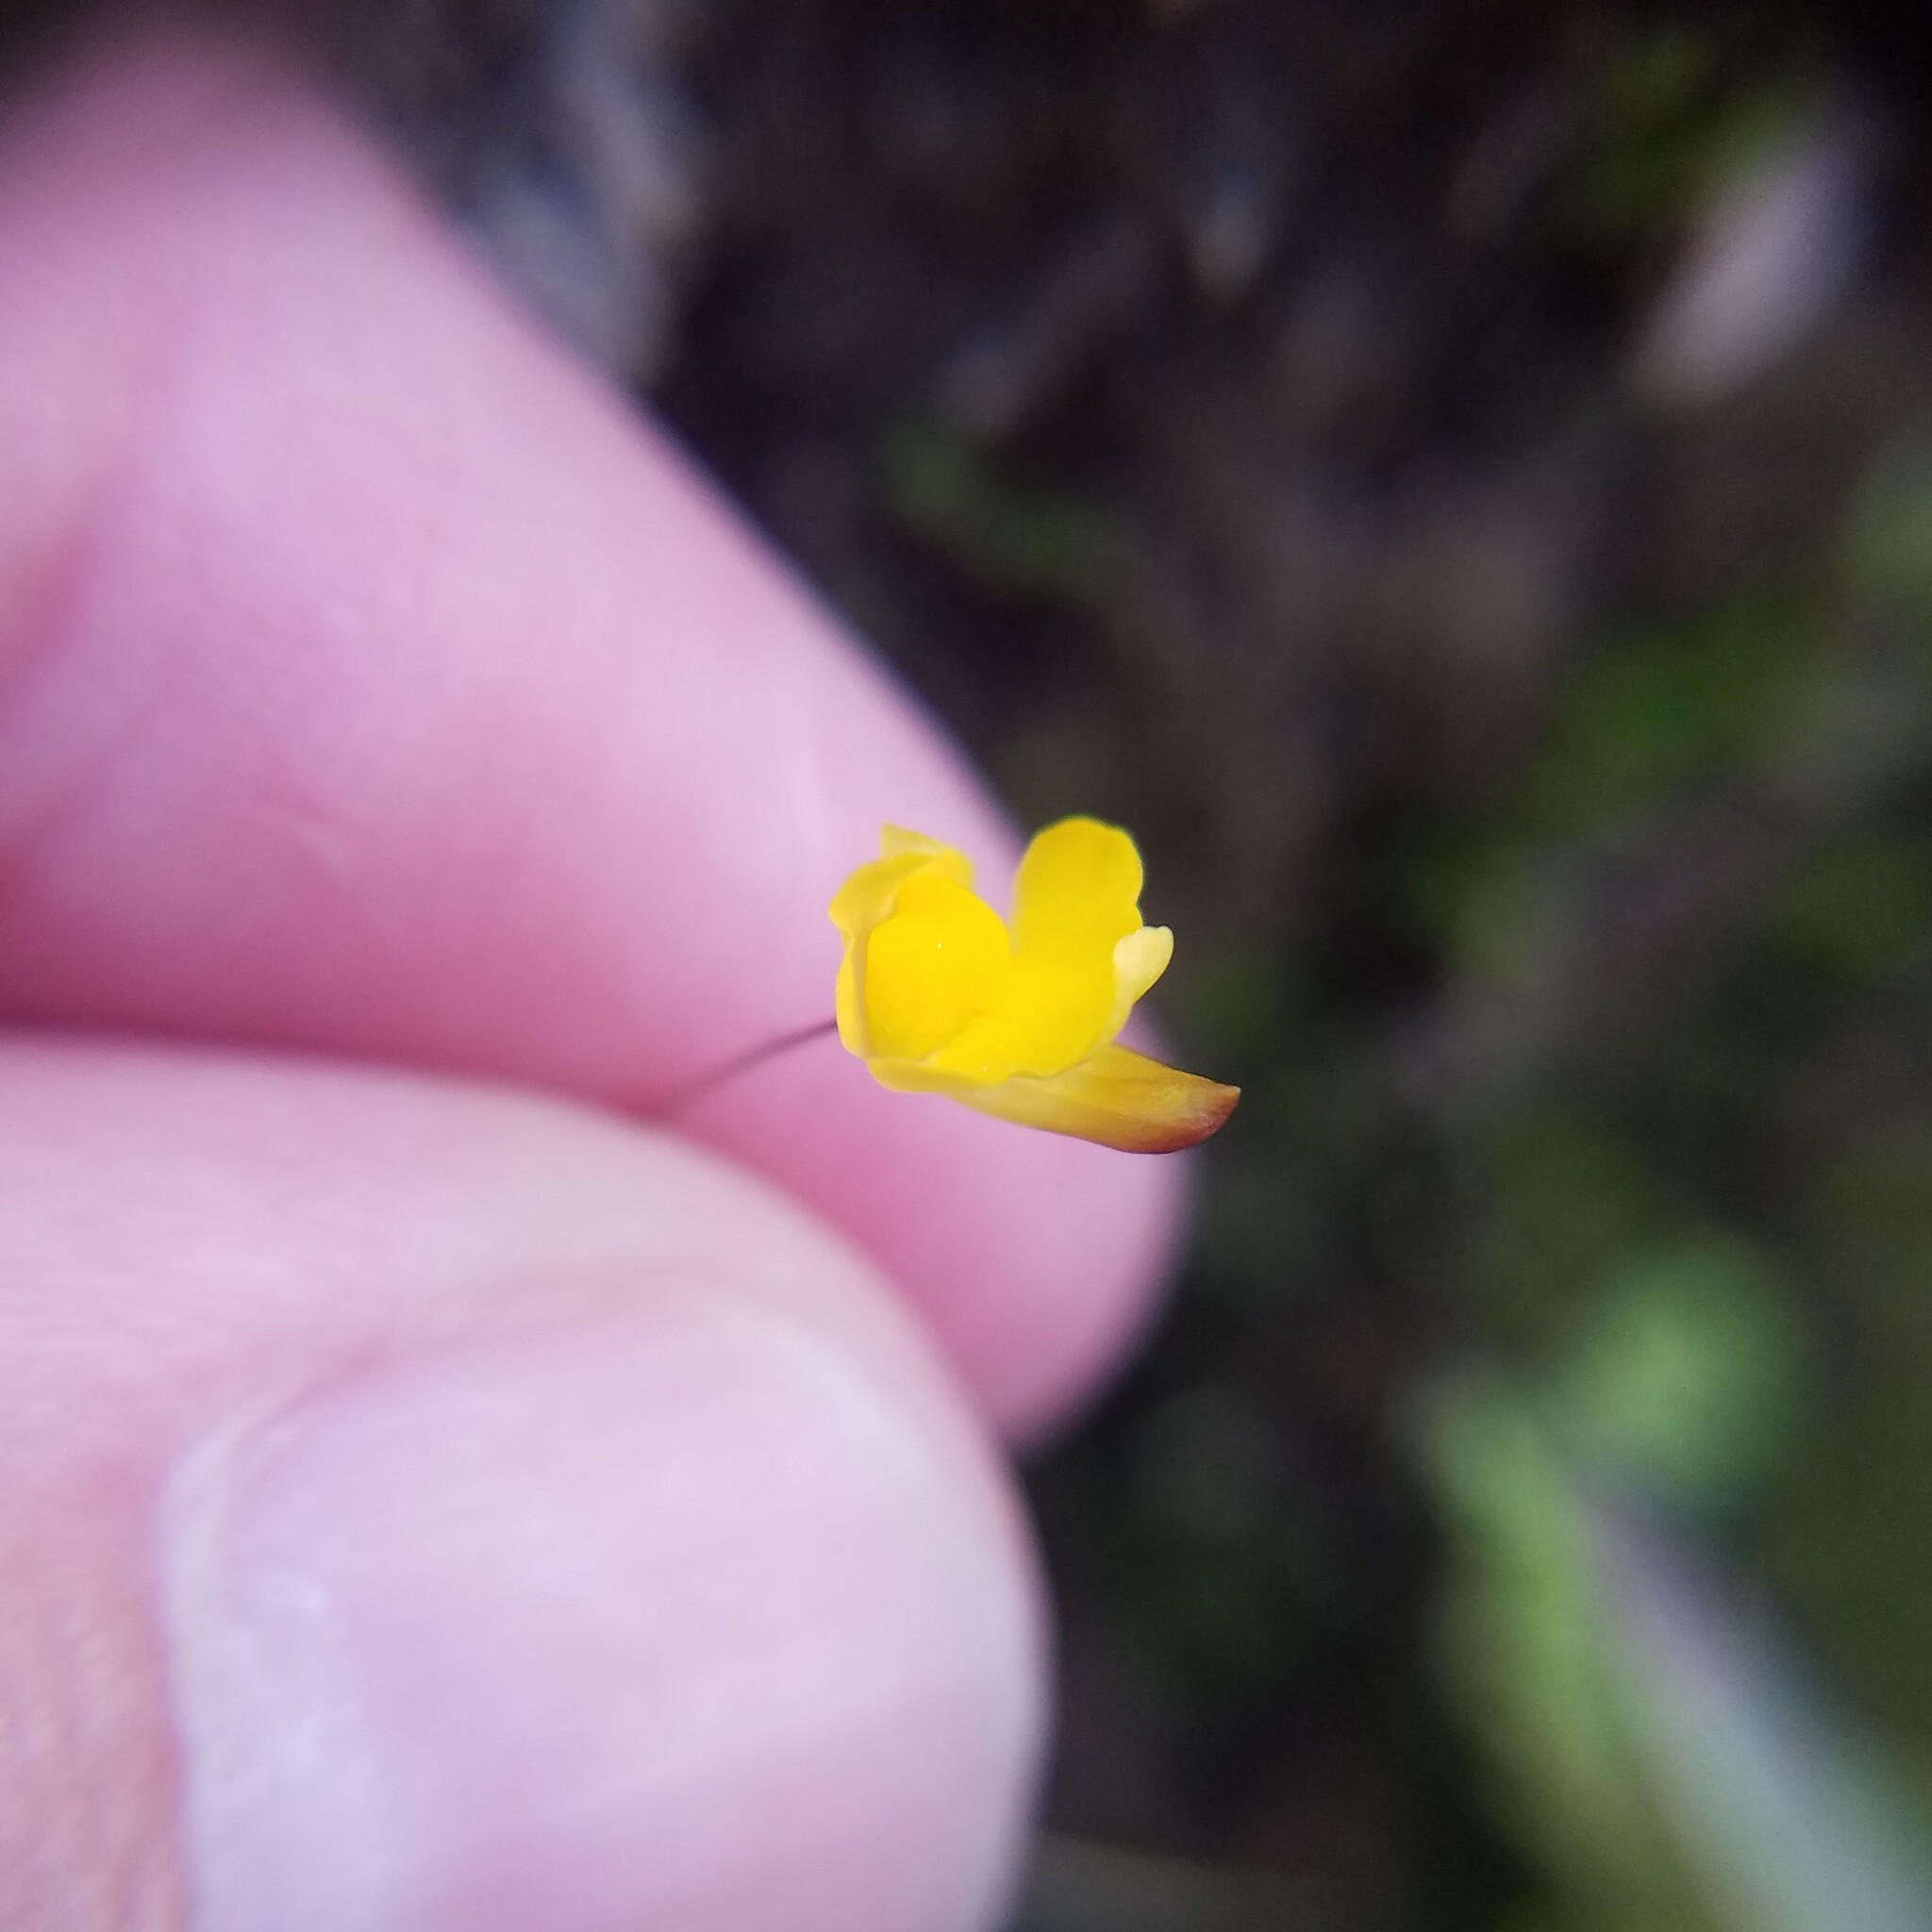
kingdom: Plantae
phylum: Tracheophyta
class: Magnoliopsida
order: Lamiales
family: Lentibulariaceae
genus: Utricularia
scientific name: Utricularia subulata
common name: Tiny bladderwort
